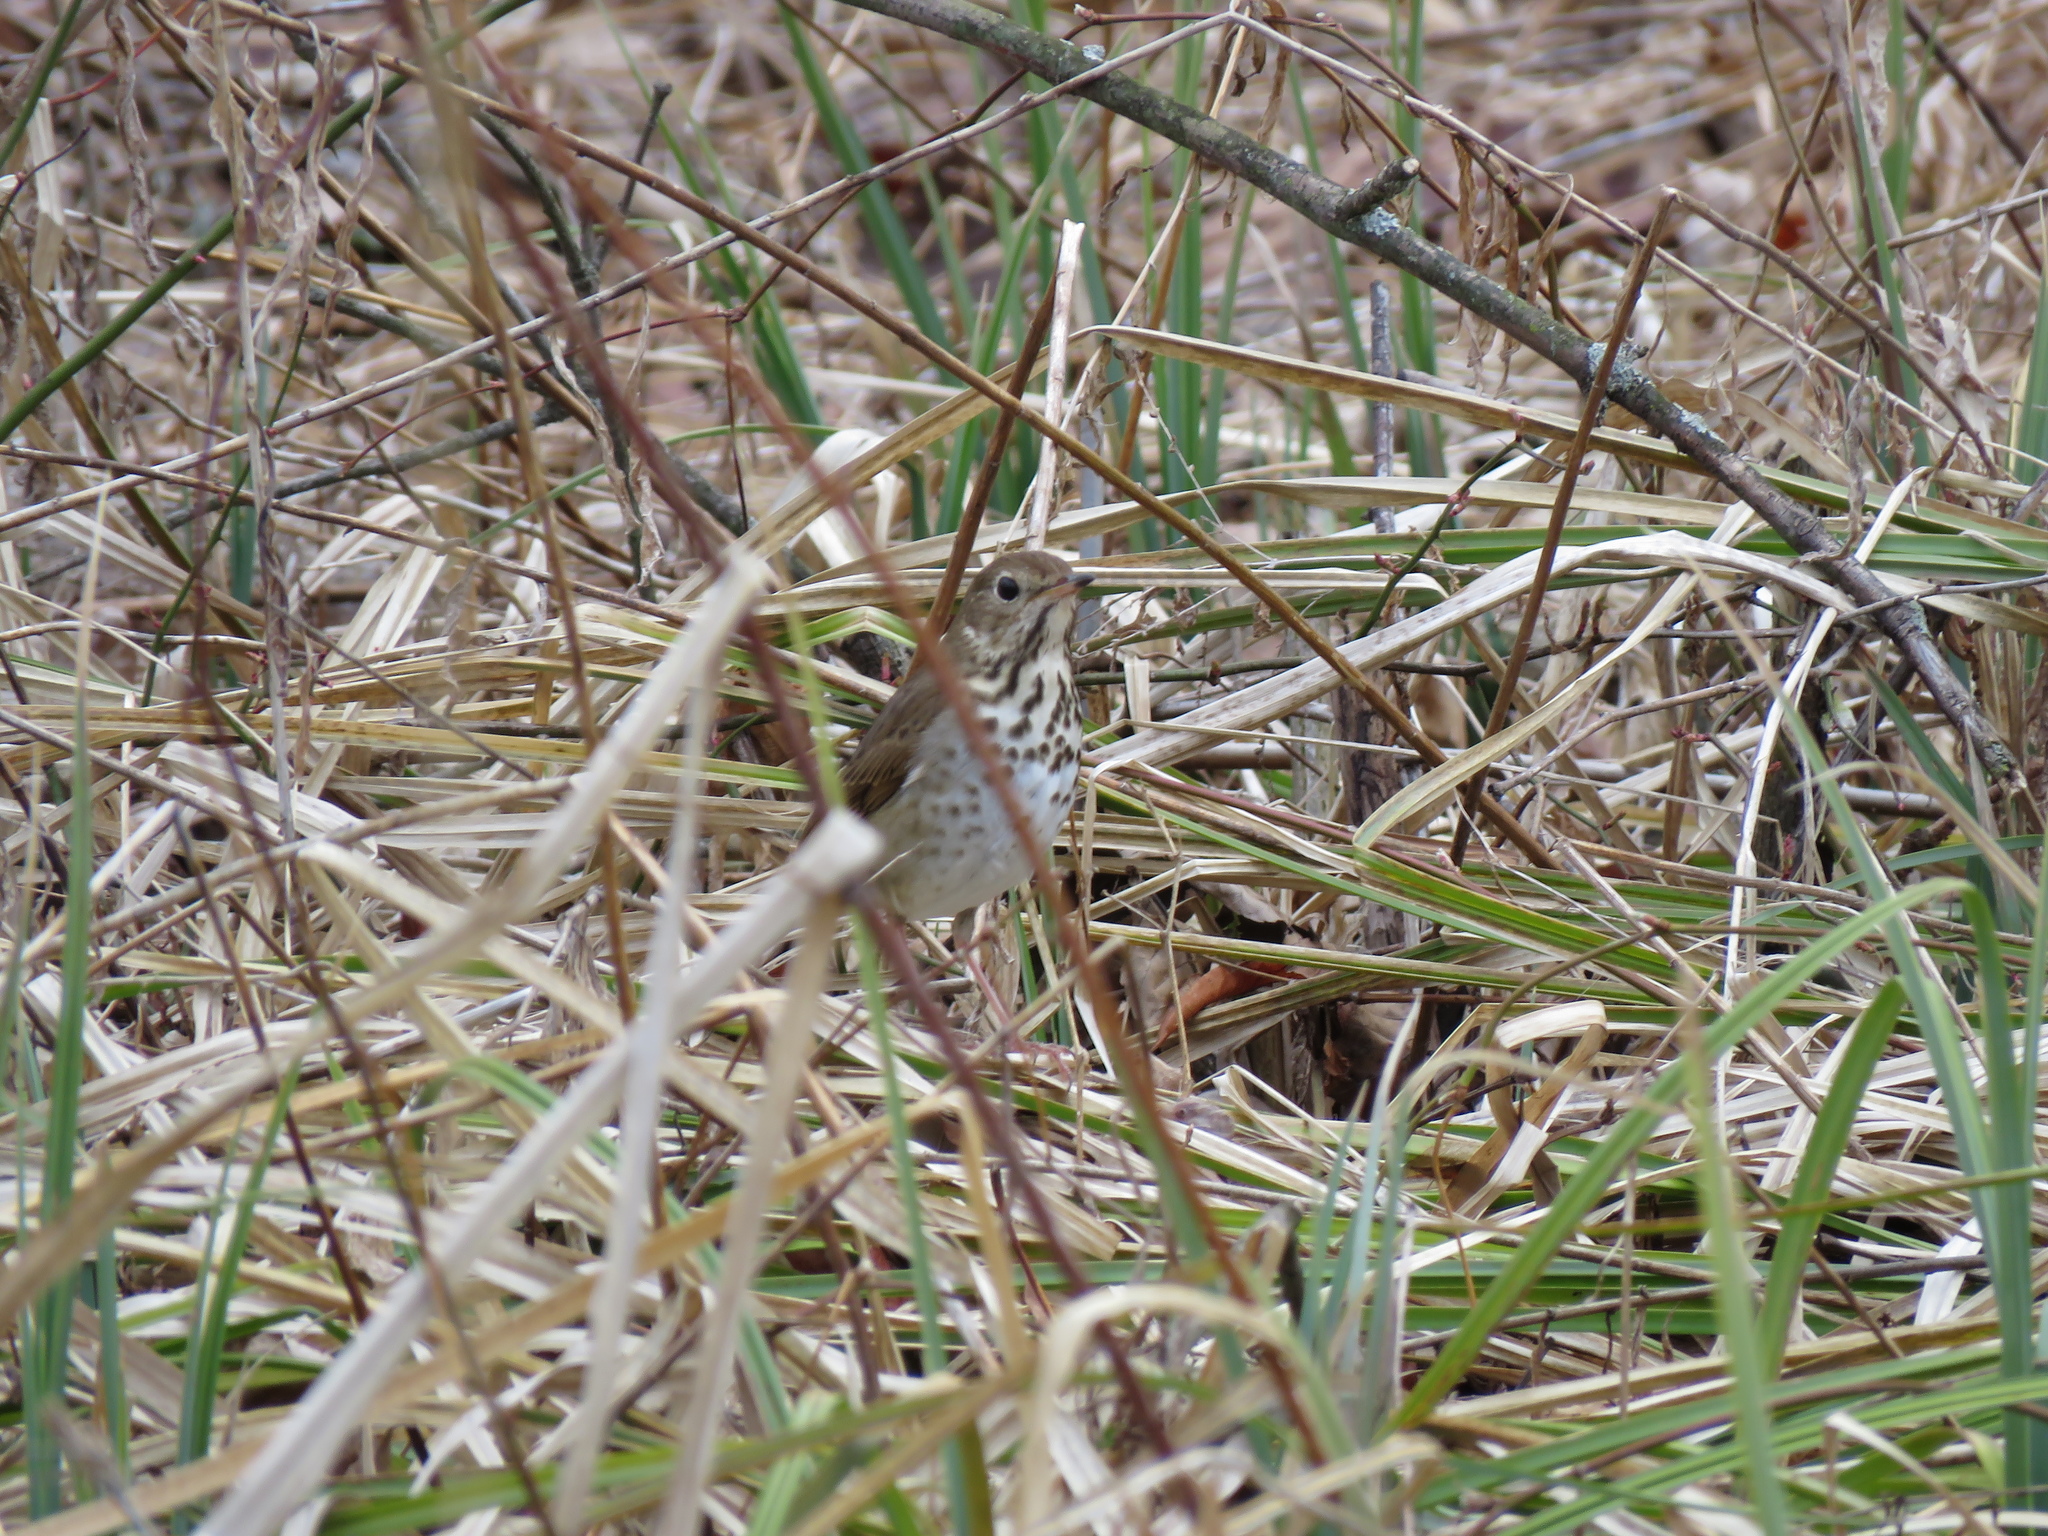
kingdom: Animalia
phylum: Chordata
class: Aves
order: Passeriformes
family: Turdidae
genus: Catharus
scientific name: Catharus guttatus
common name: Hermit thrush
